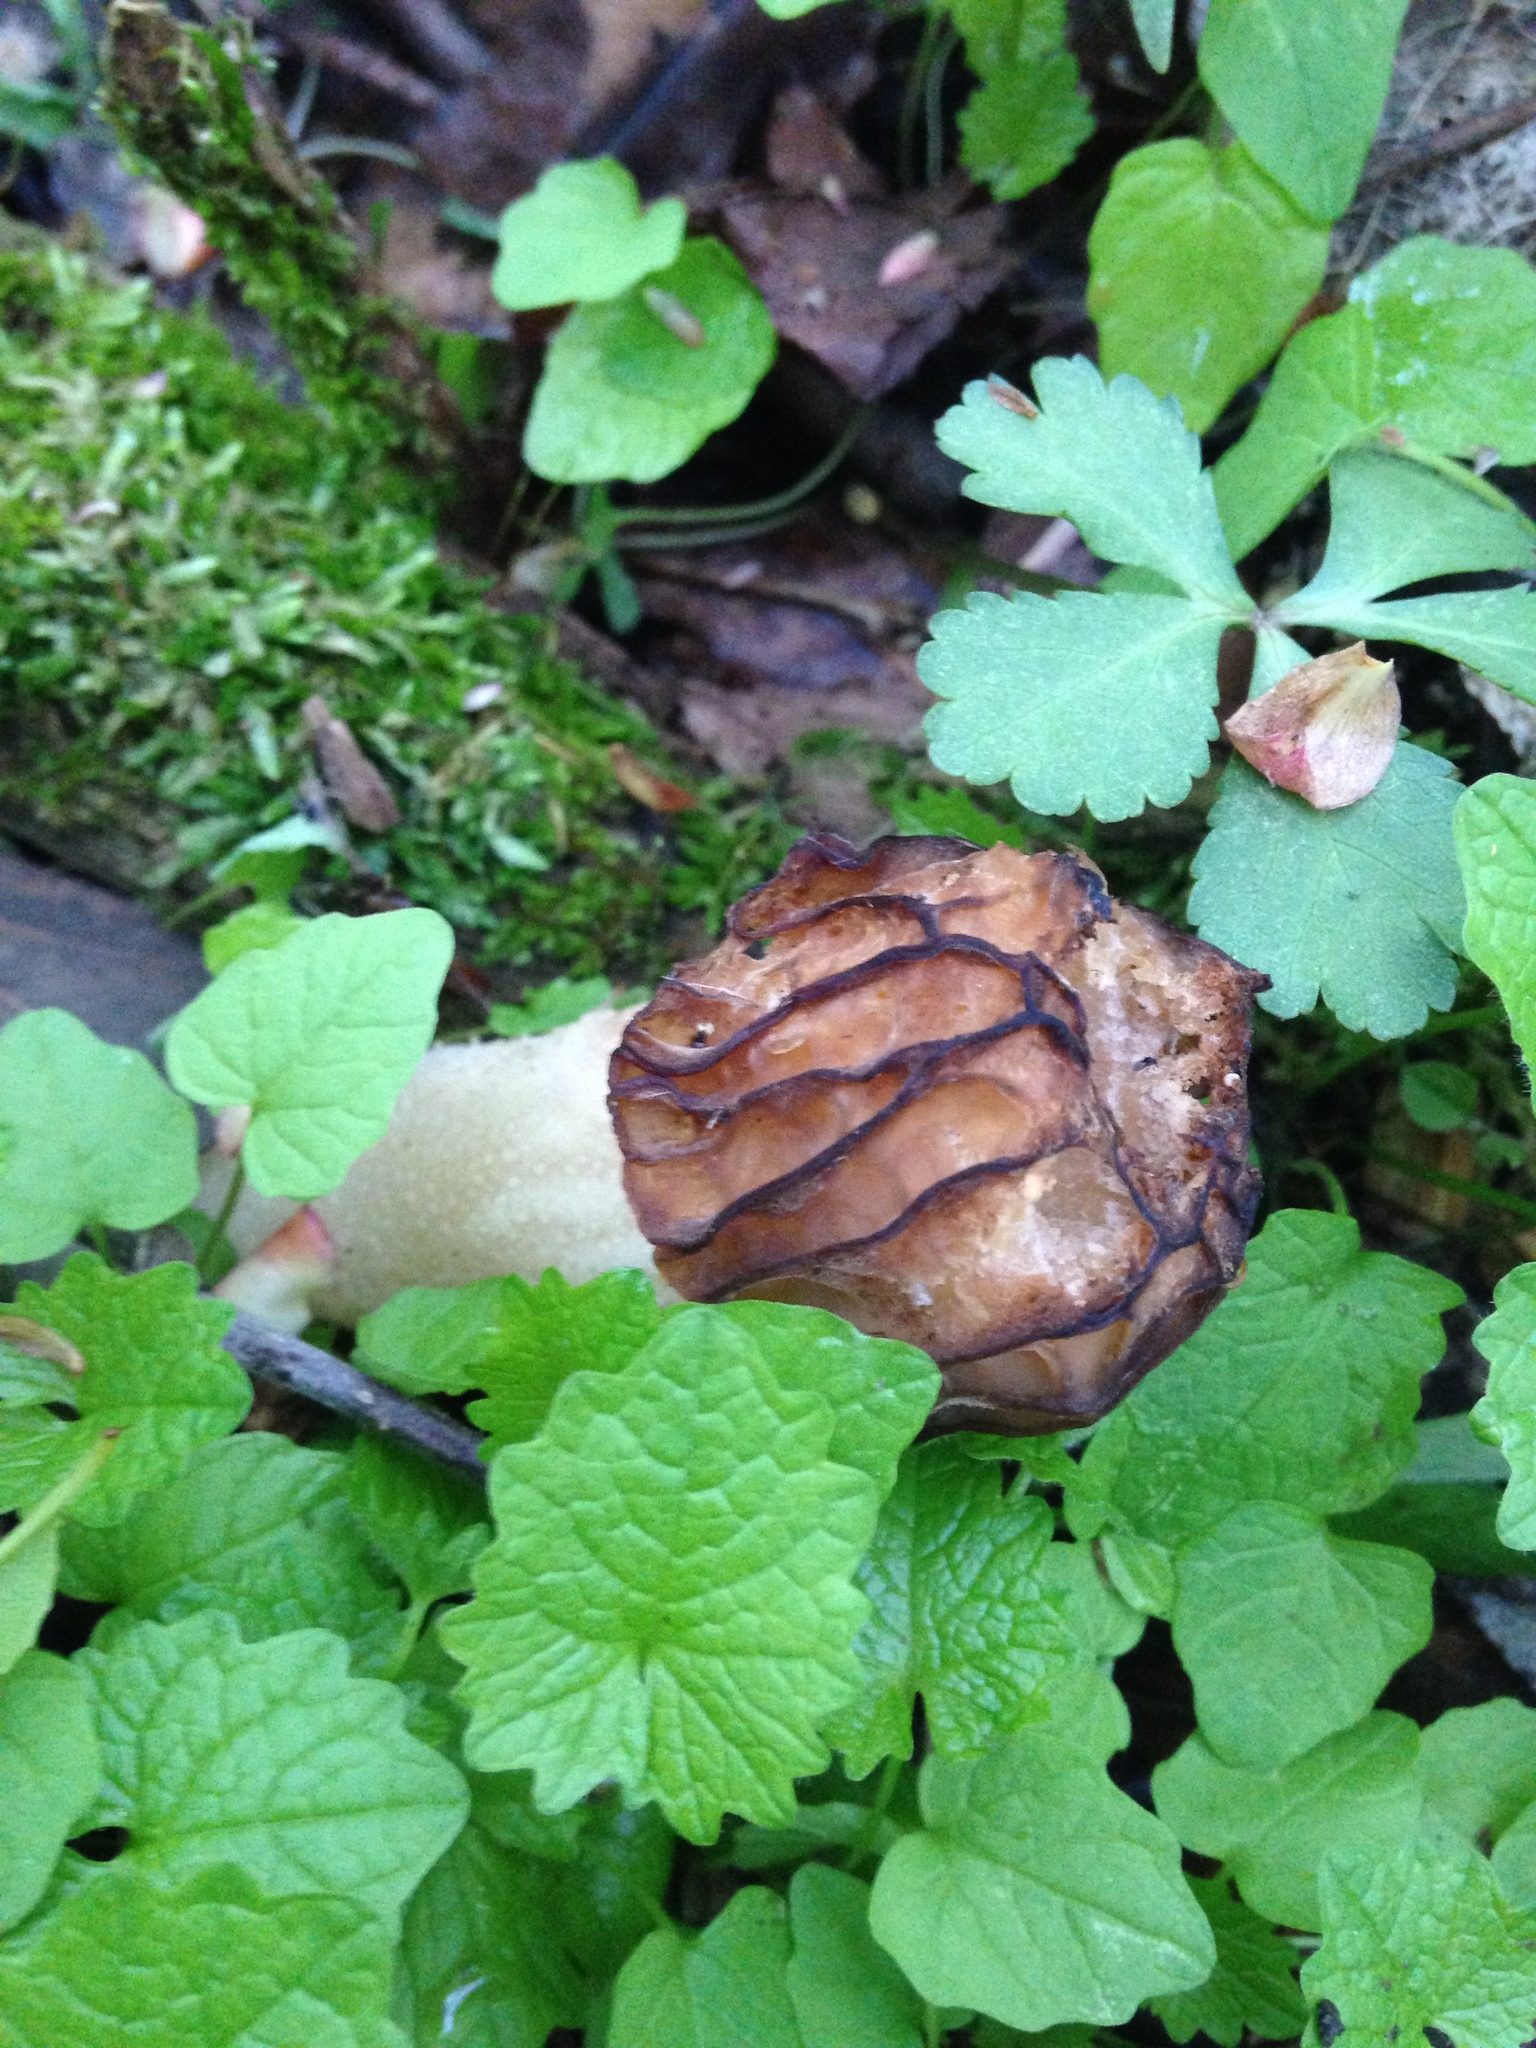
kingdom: Fungi
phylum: Ascomycota
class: Pezizomycetes
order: Pezizales
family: Morchellaceae
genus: Morchella
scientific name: Morchella punctipes
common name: Half-free morel
